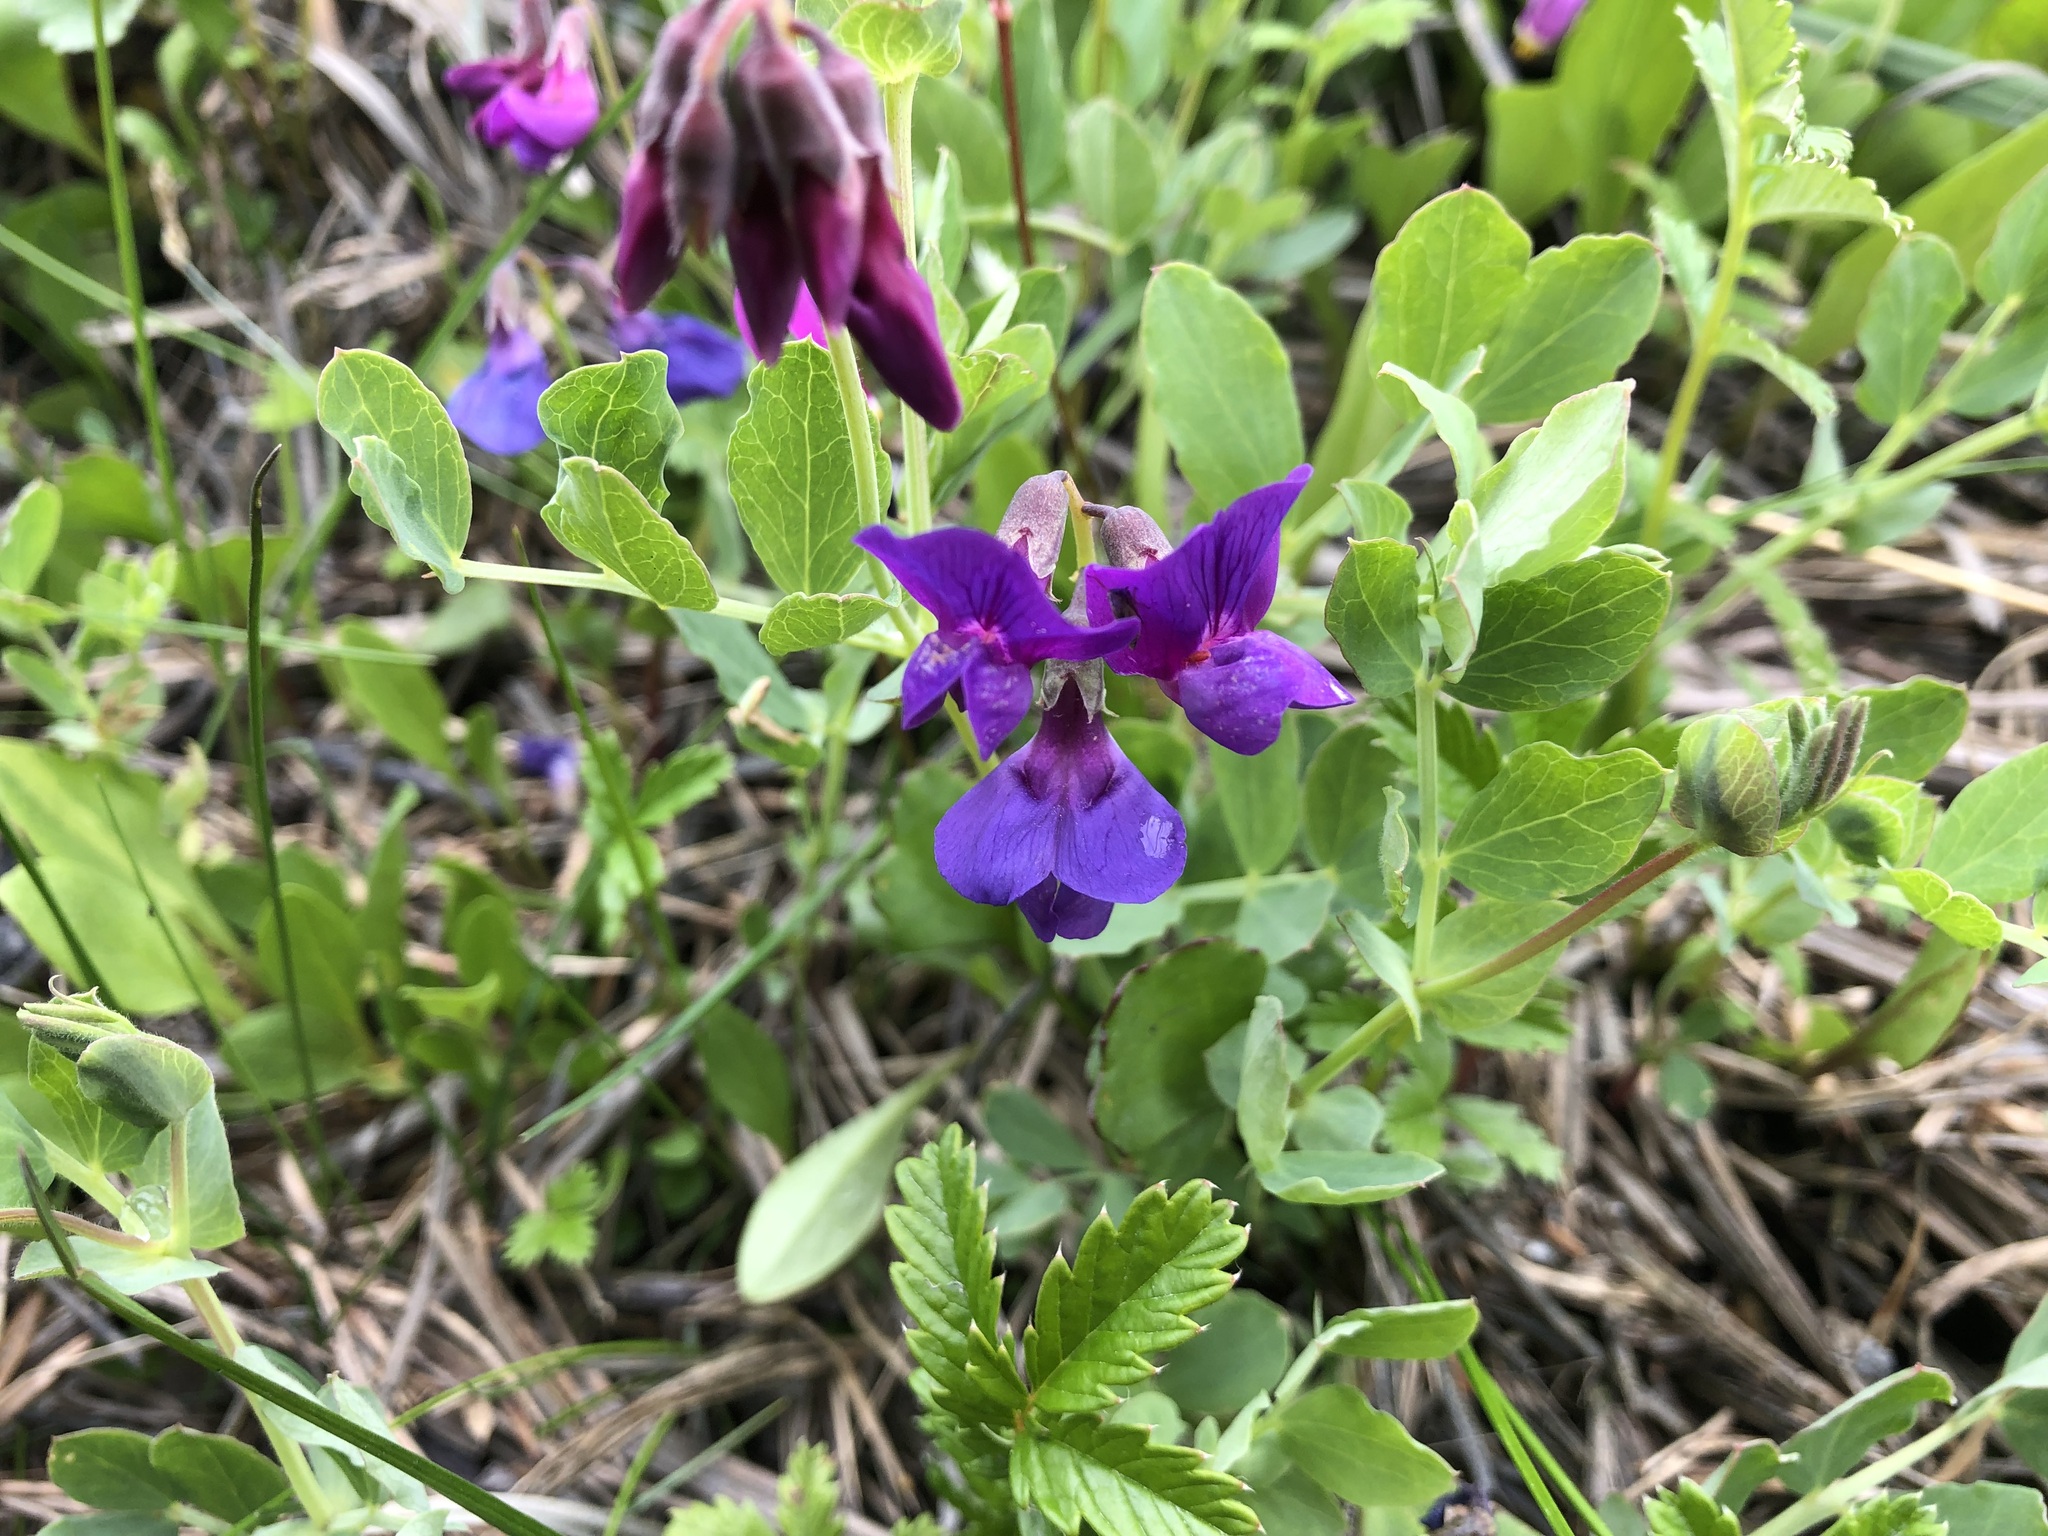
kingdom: Plantae
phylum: Tracheophyta
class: Magnoliopsida
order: Fabales
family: Fabaceae
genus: Lathyrus
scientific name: Lathyrus japonicus
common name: Sea pea
